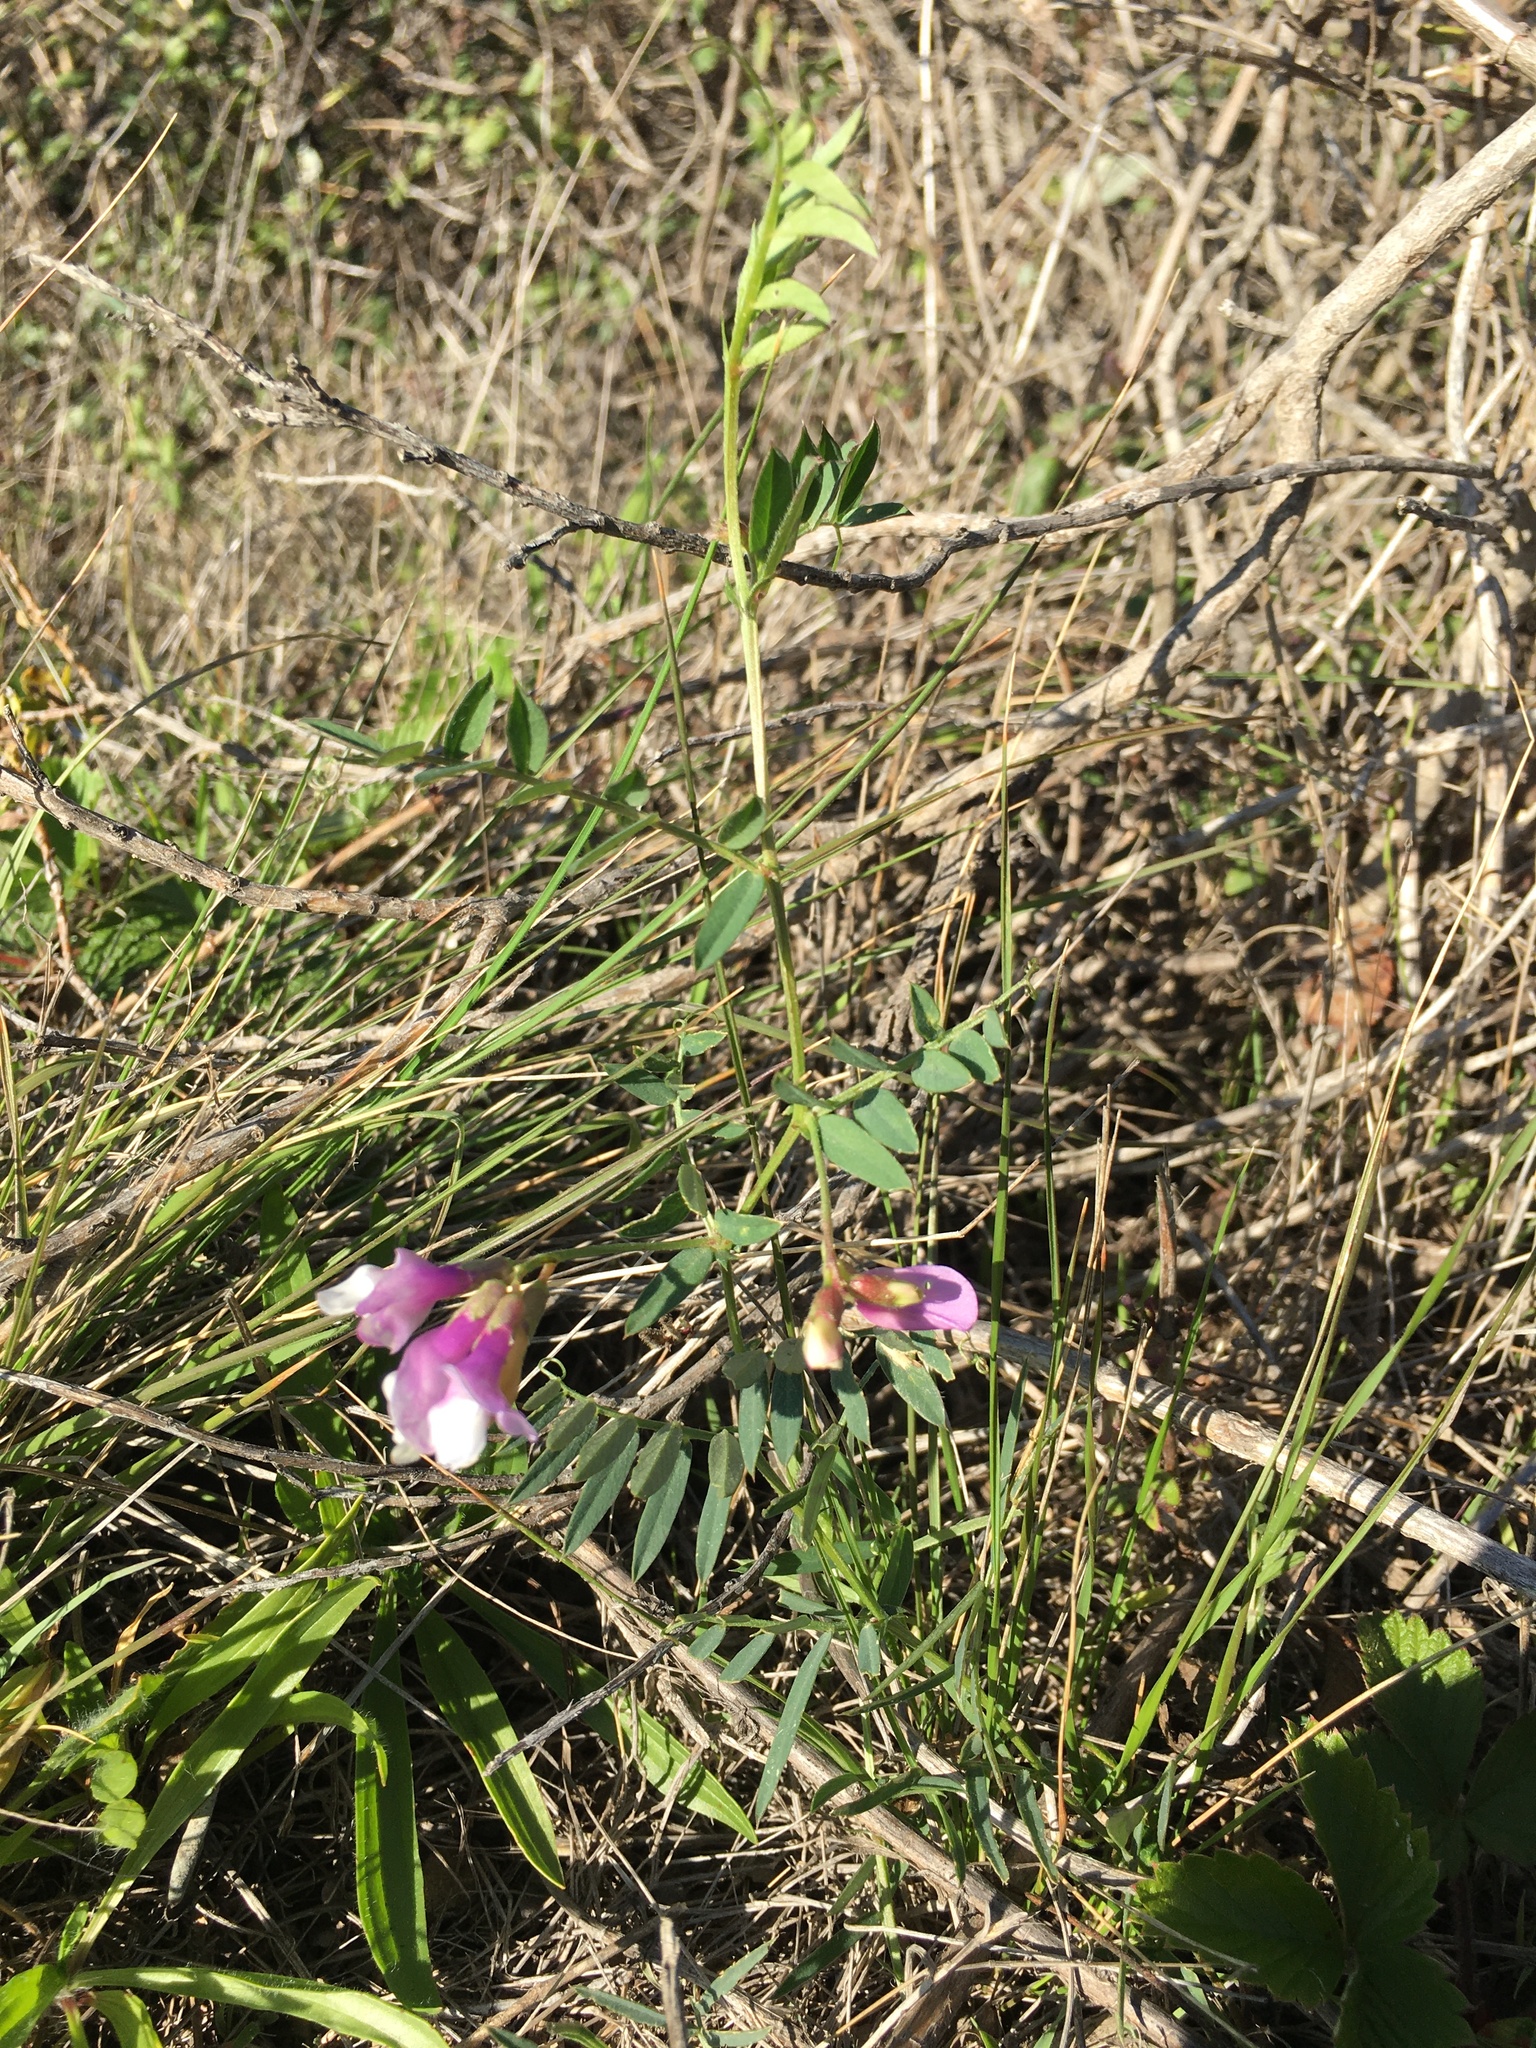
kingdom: Plantae
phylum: Tracheophyta
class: Magnoliopsida
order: Fabales
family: Fabaceae
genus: Vicia
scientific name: Vicia americana
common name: American vetch
